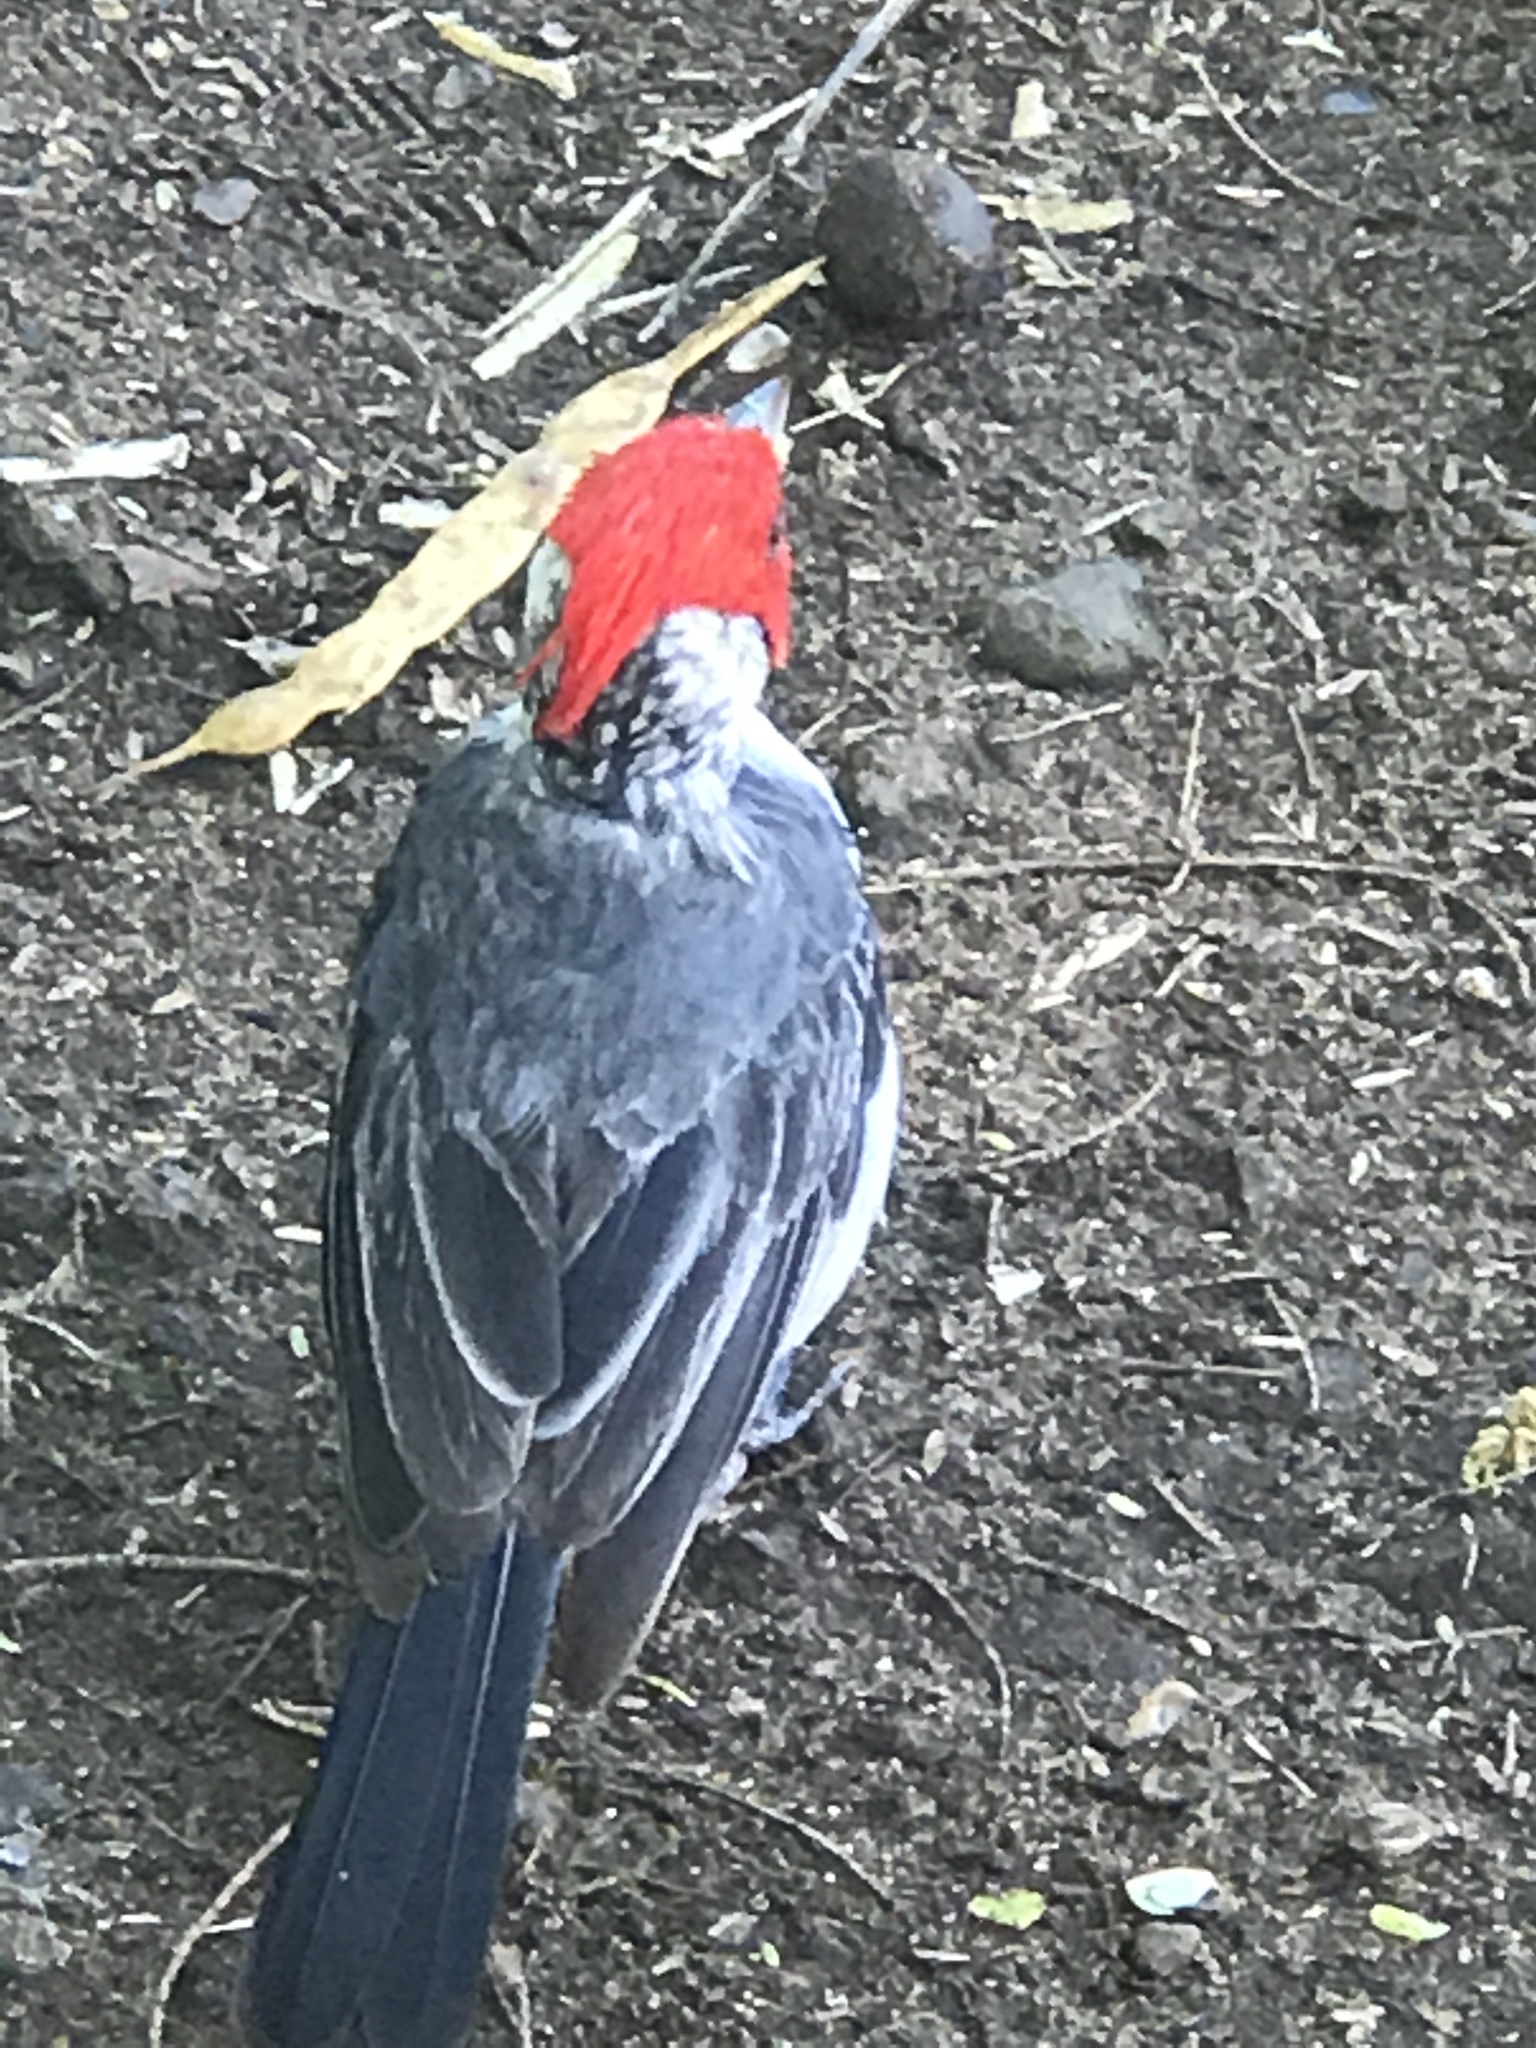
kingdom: Animalia
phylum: Chordata
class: Aves
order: Passeriformes
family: Thraupidae
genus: Paroaria
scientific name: Paroaria coronata
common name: Red-crested cardinal
